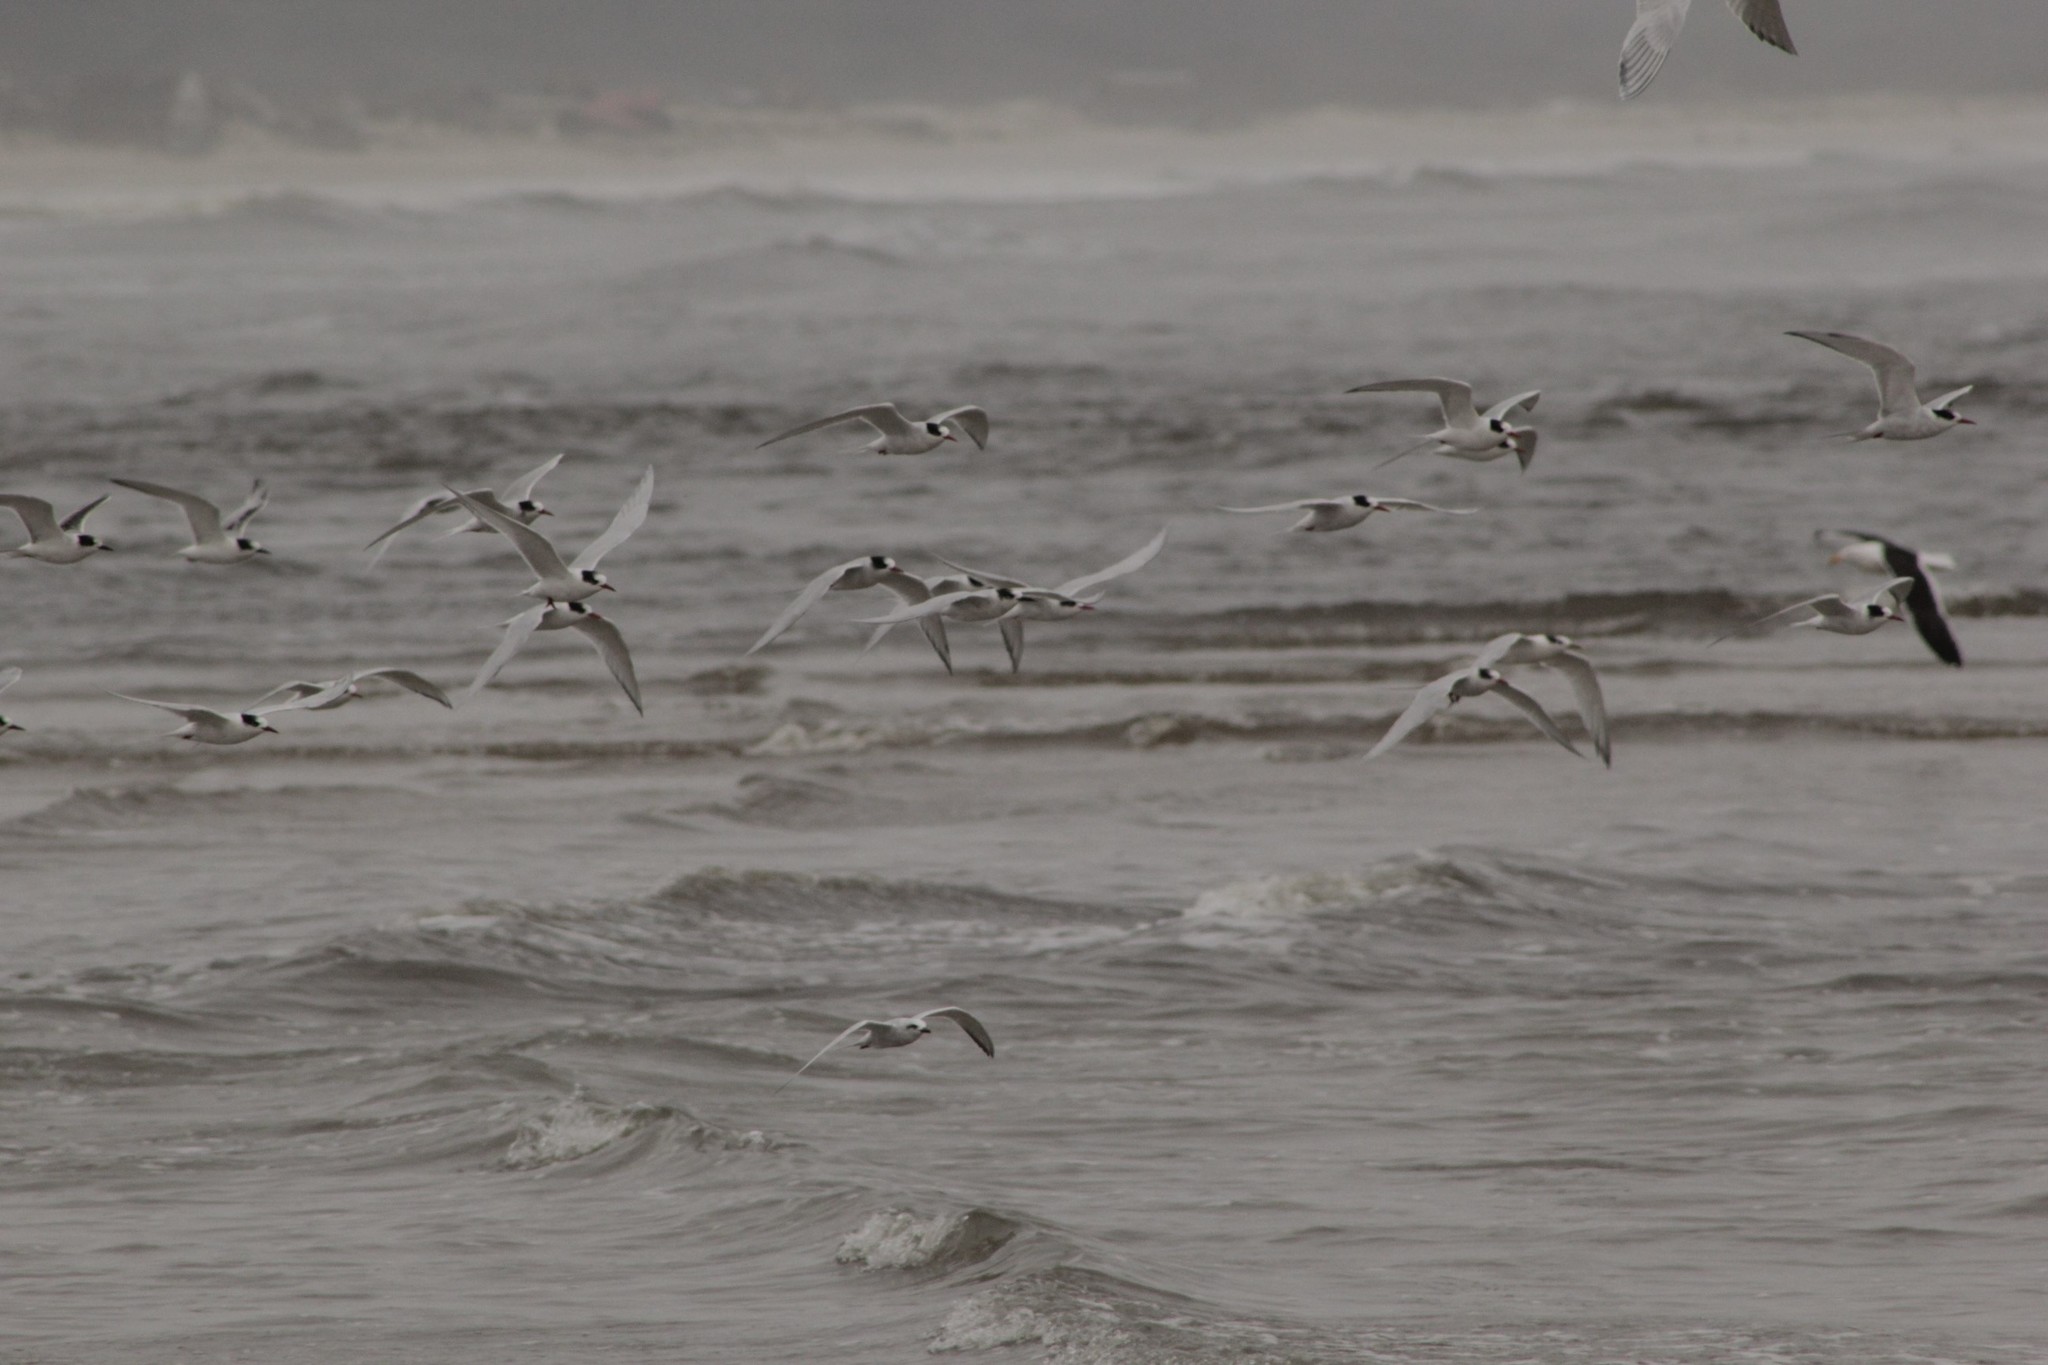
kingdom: Animalia
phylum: Chordata
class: Aves
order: Charadriiformes
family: Laridae
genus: Sterna
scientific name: Sterna hirundinacea
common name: South american tern
